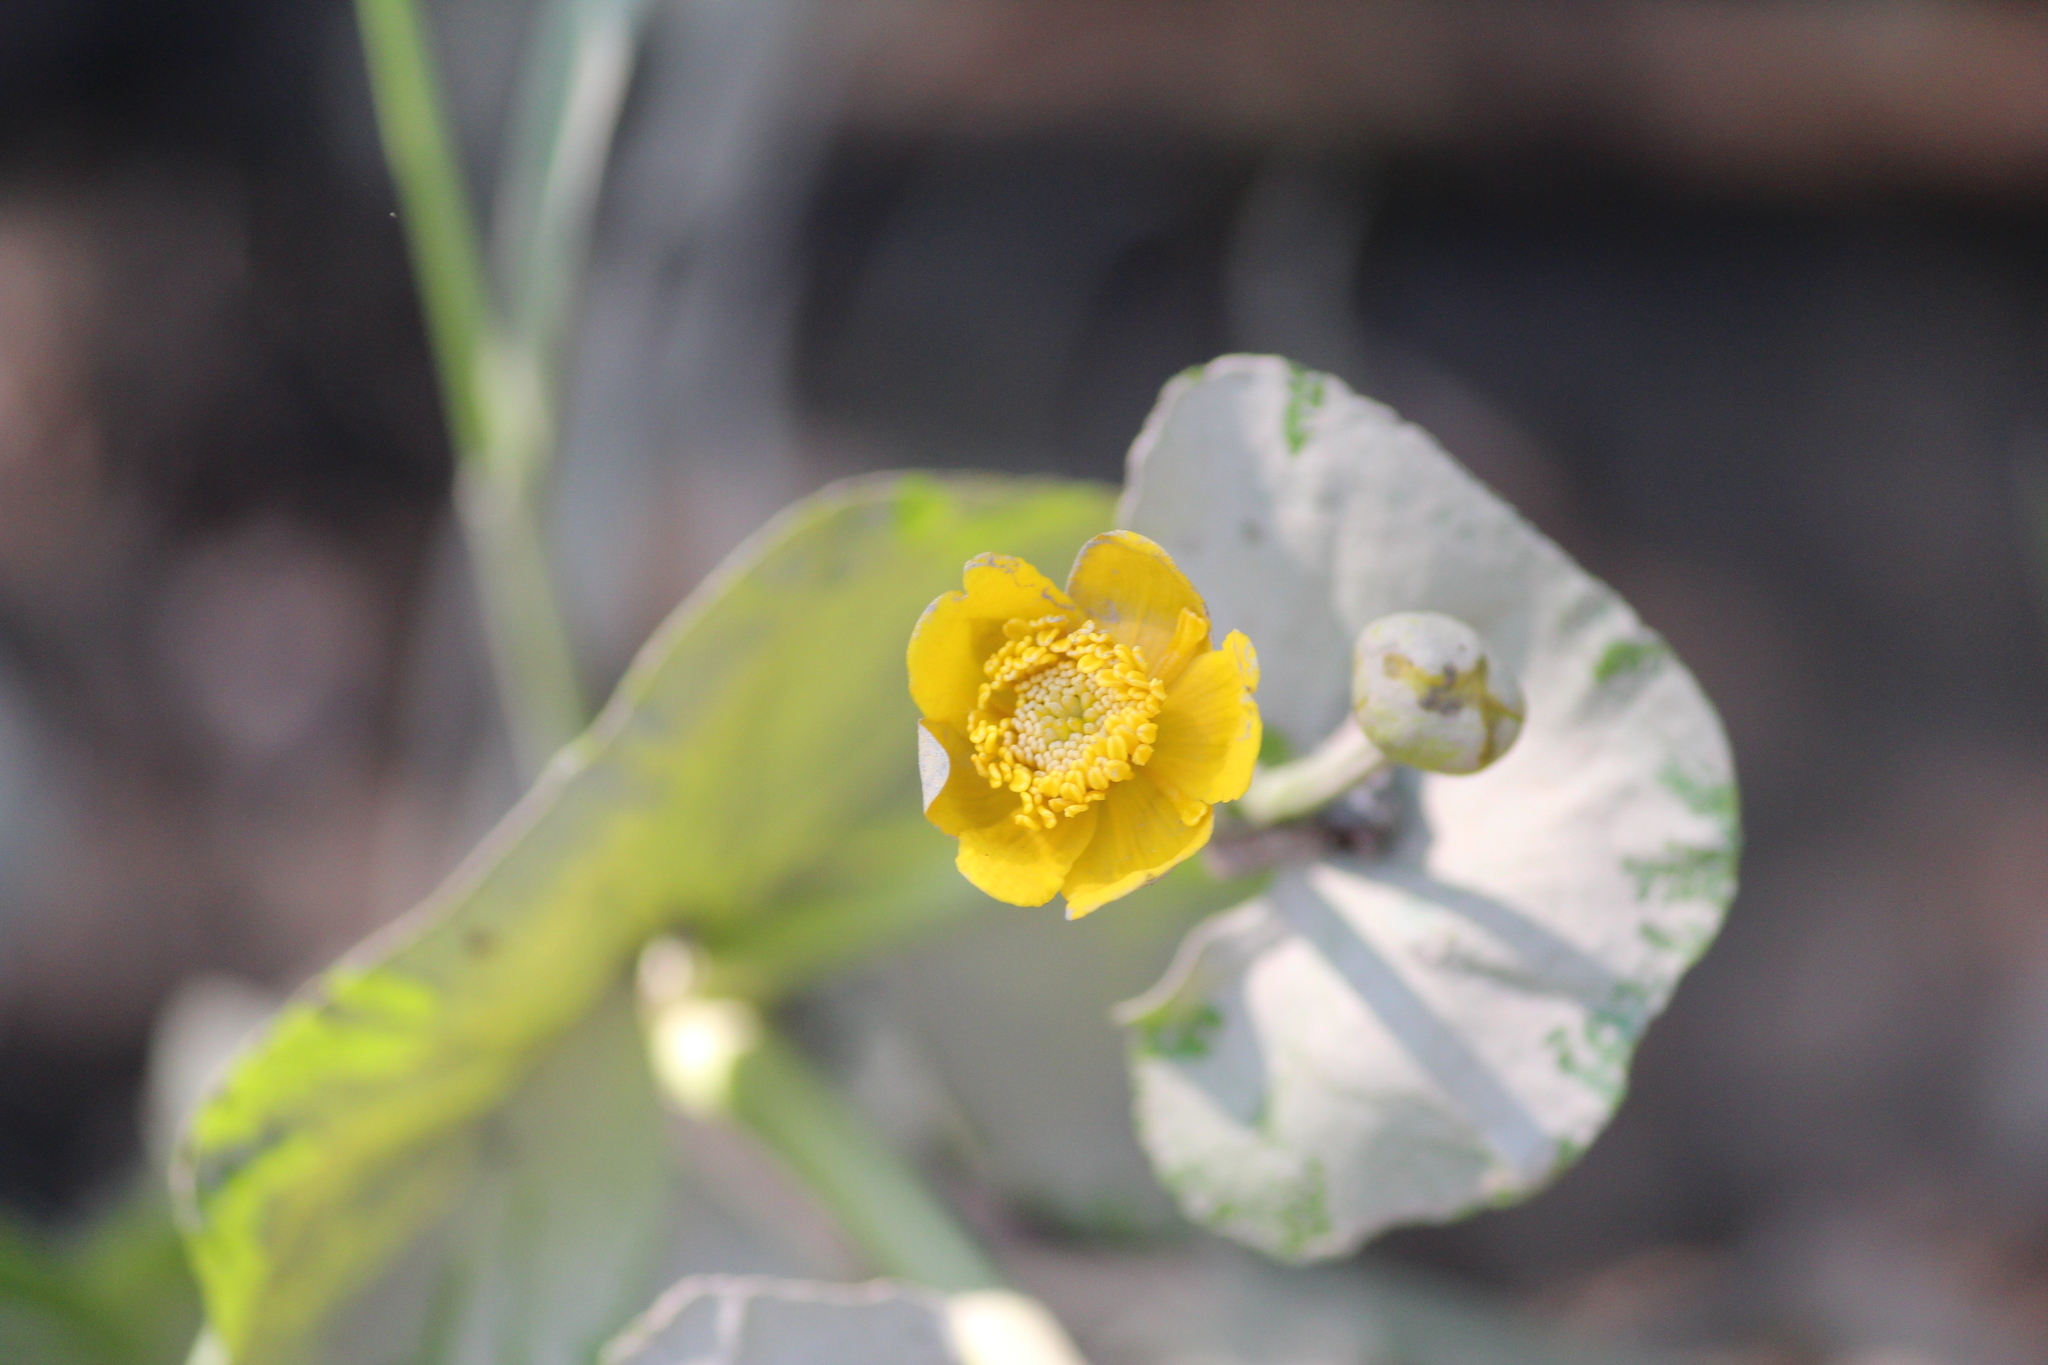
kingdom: Plantae
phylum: Tracheophyta
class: Magnoliopsida
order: Ranunculales
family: Ranunculaceae
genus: Caltha
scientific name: Caltha palustris
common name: Marsh marigold
